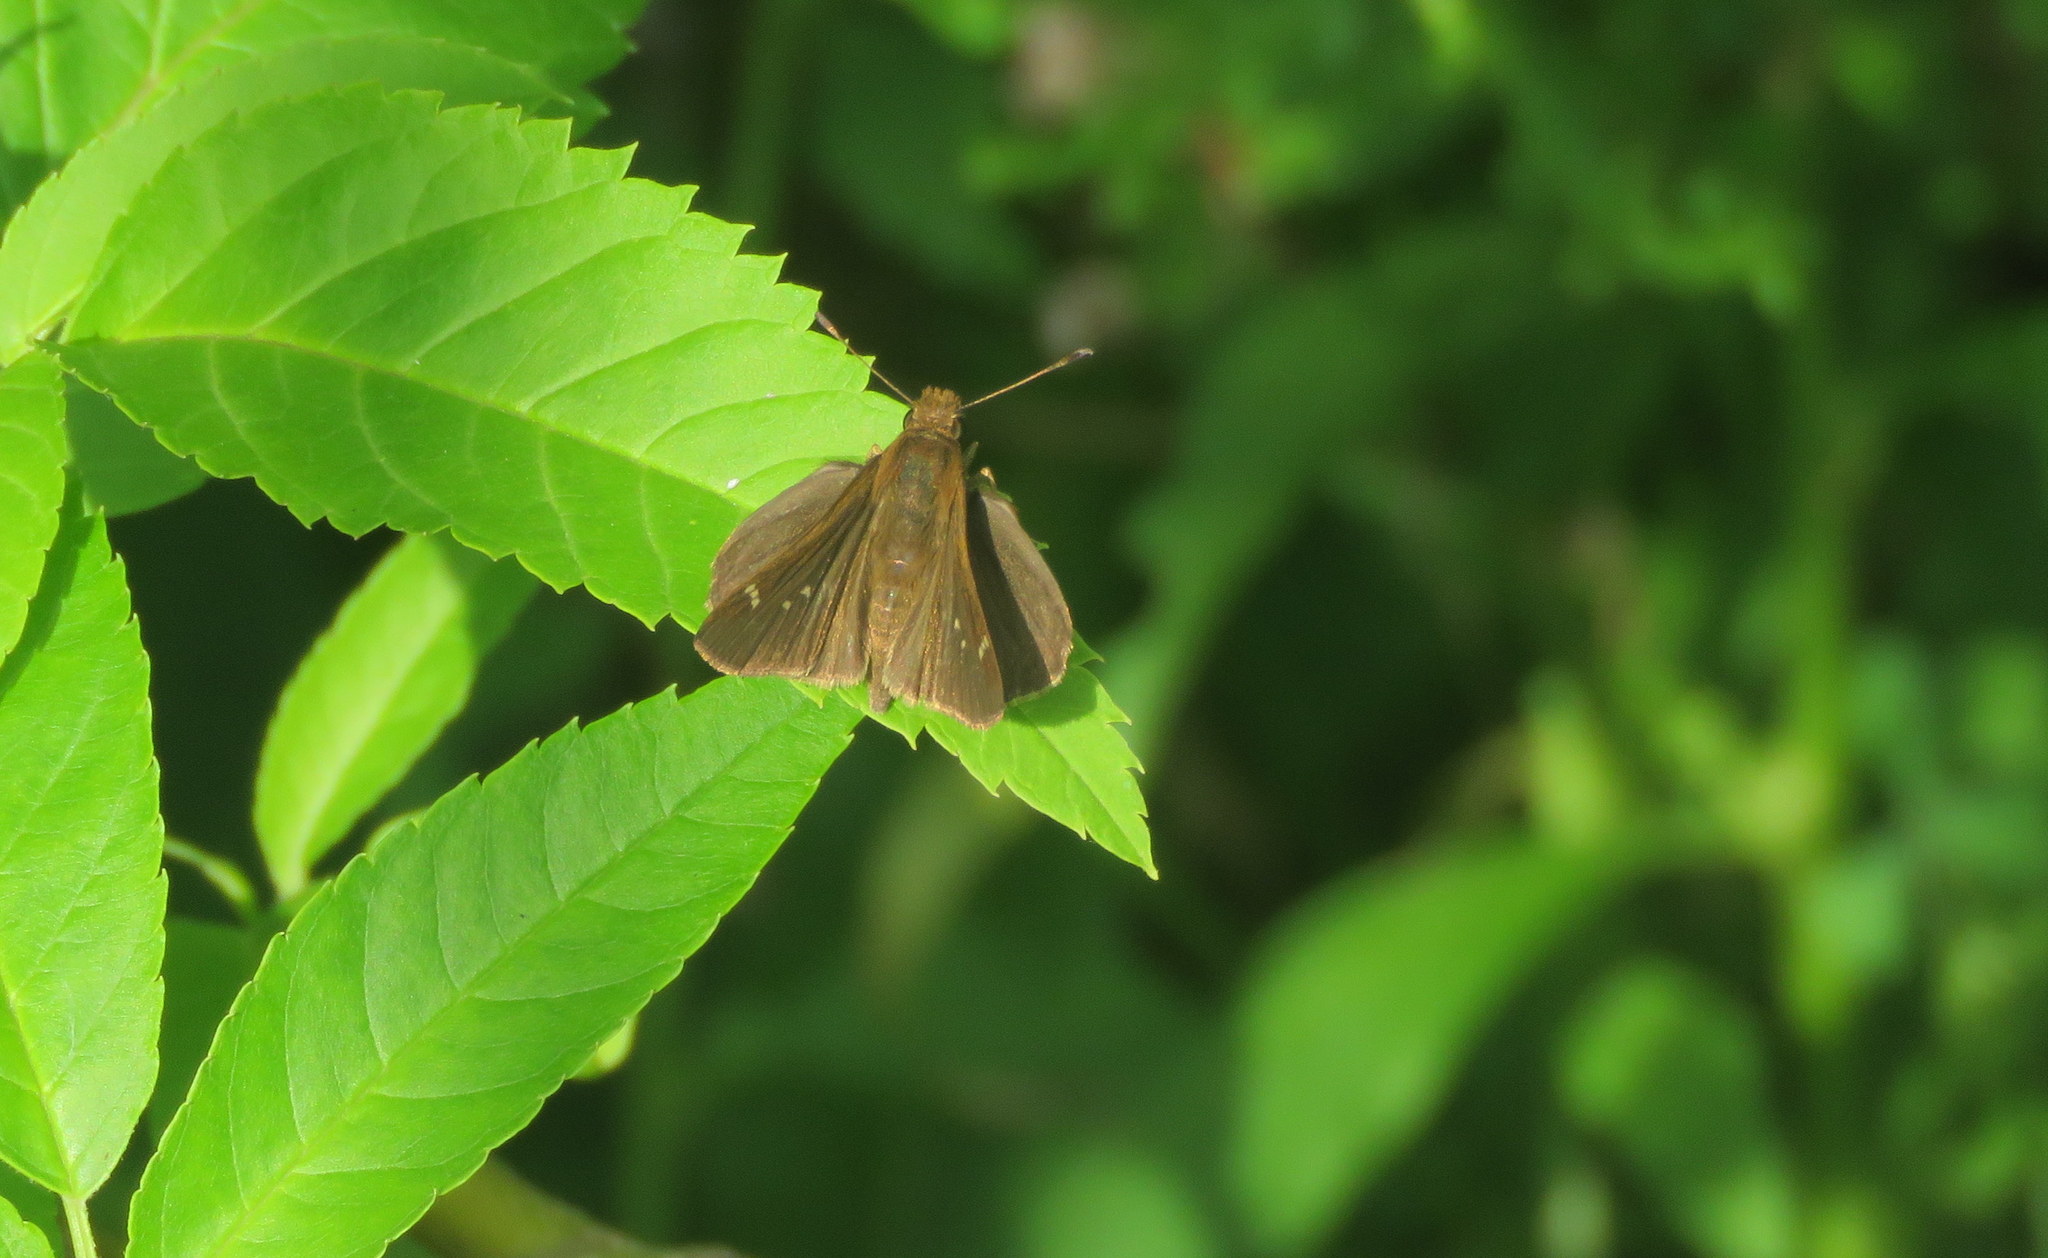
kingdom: Animalia
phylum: Arthropoda
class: Insecta
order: Lepidoptera
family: Hesperiidae
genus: Cymaenes
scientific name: Cymaenes
